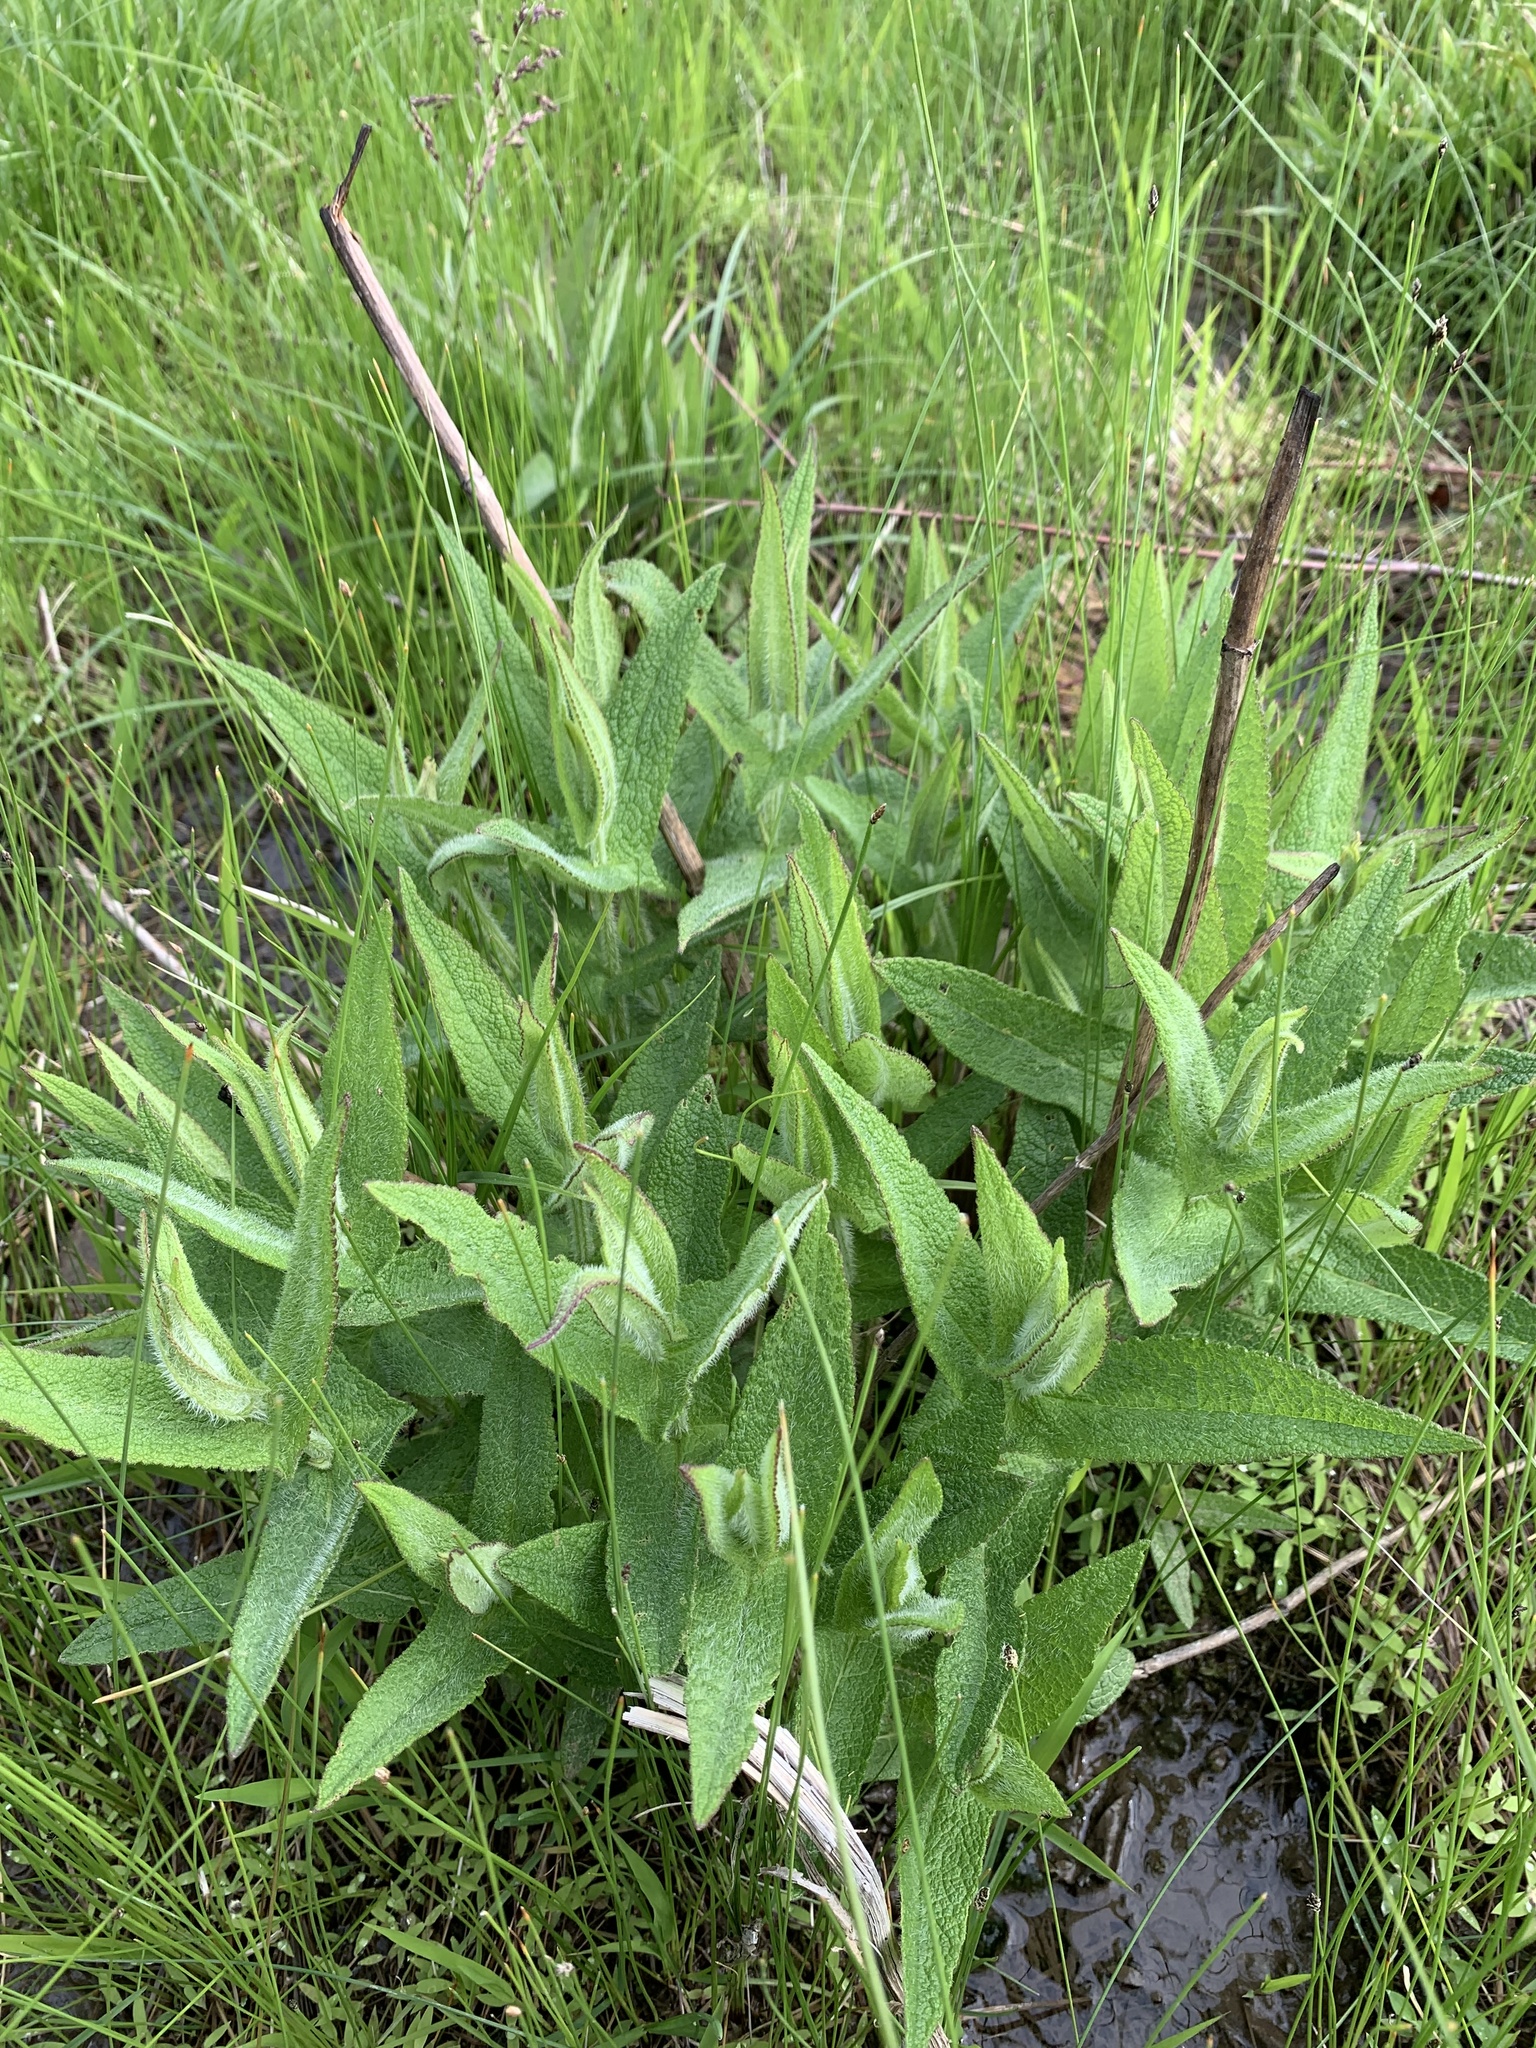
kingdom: Plantae
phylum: Tracheophyta
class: Magnoliopsida
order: Asterales
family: Asteraceae
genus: Eupatorium
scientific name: Eupatorium perfoliatum
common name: Boneset
